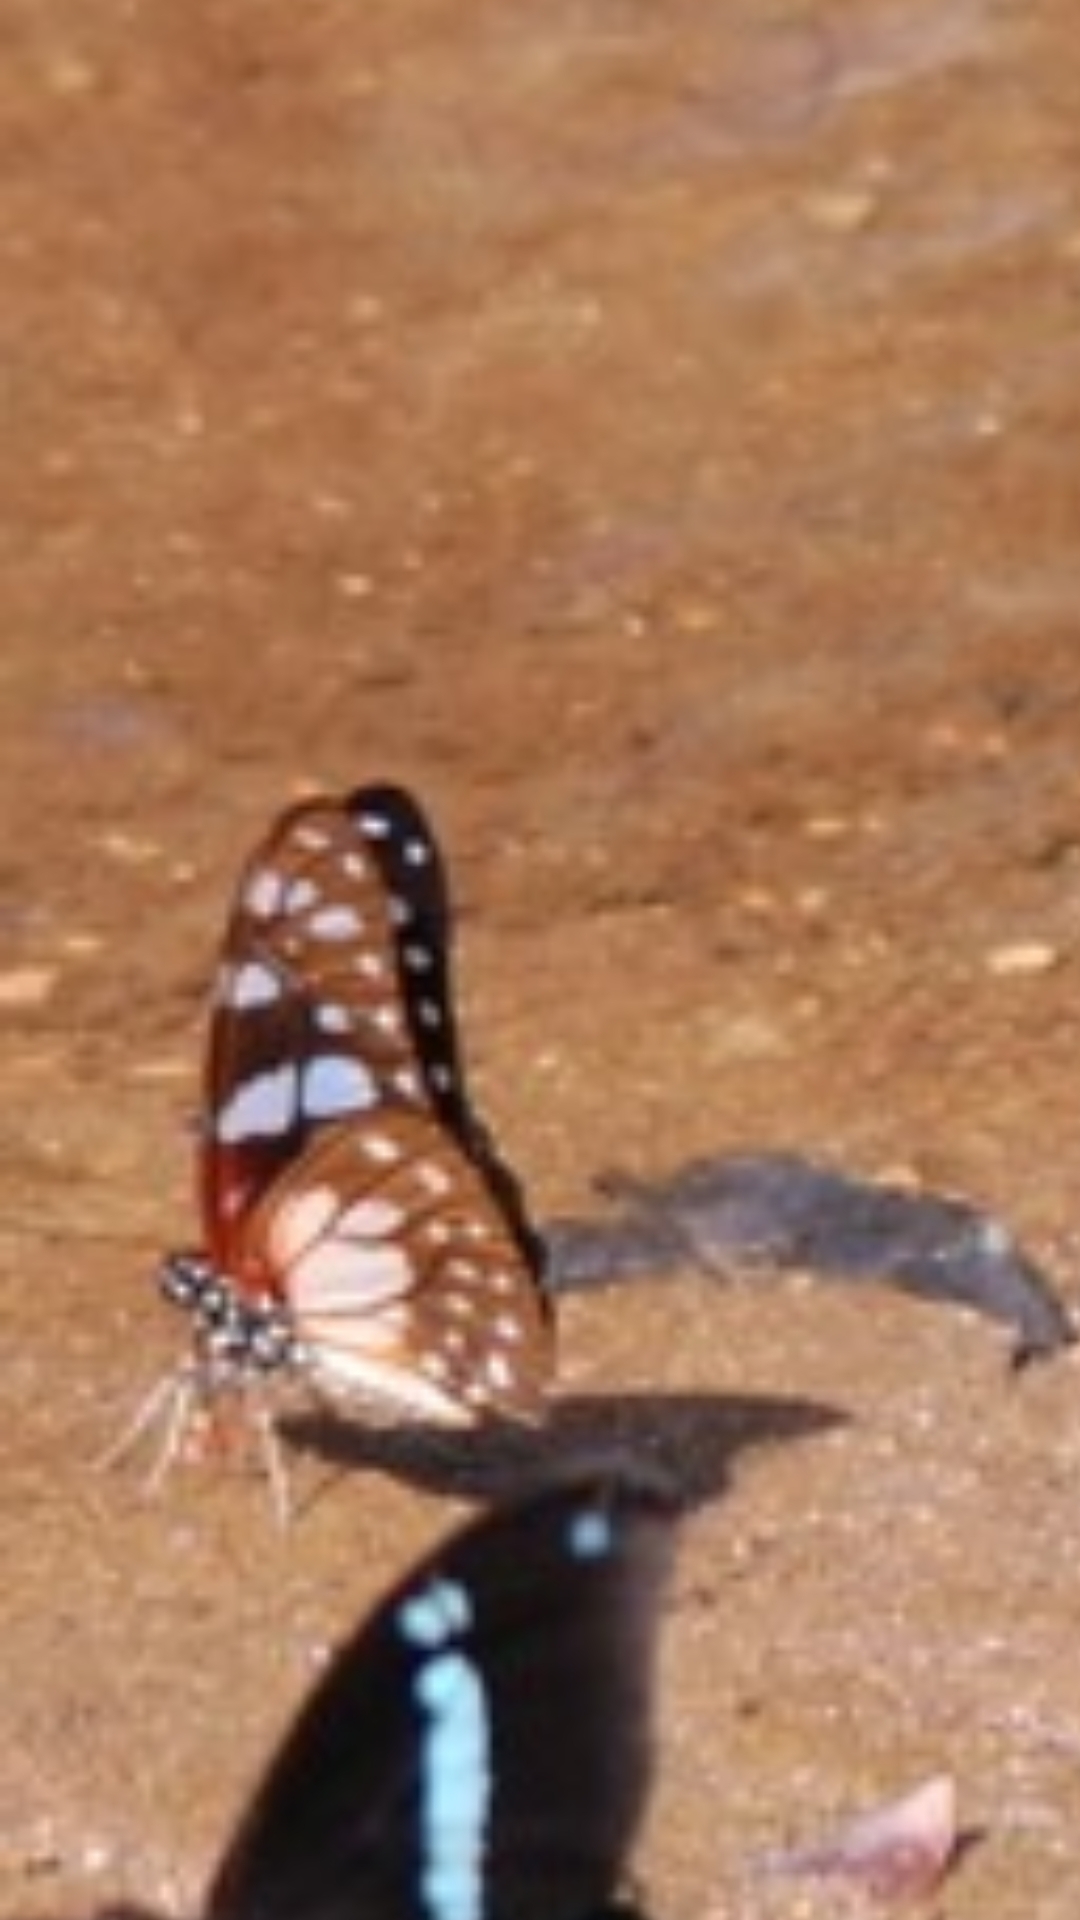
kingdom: Animalia
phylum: Arthropoda
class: Insecta
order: Lepidoptera
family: Papilionidae
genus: Graphium
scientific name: Graphium leonidas
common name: Common graphium
